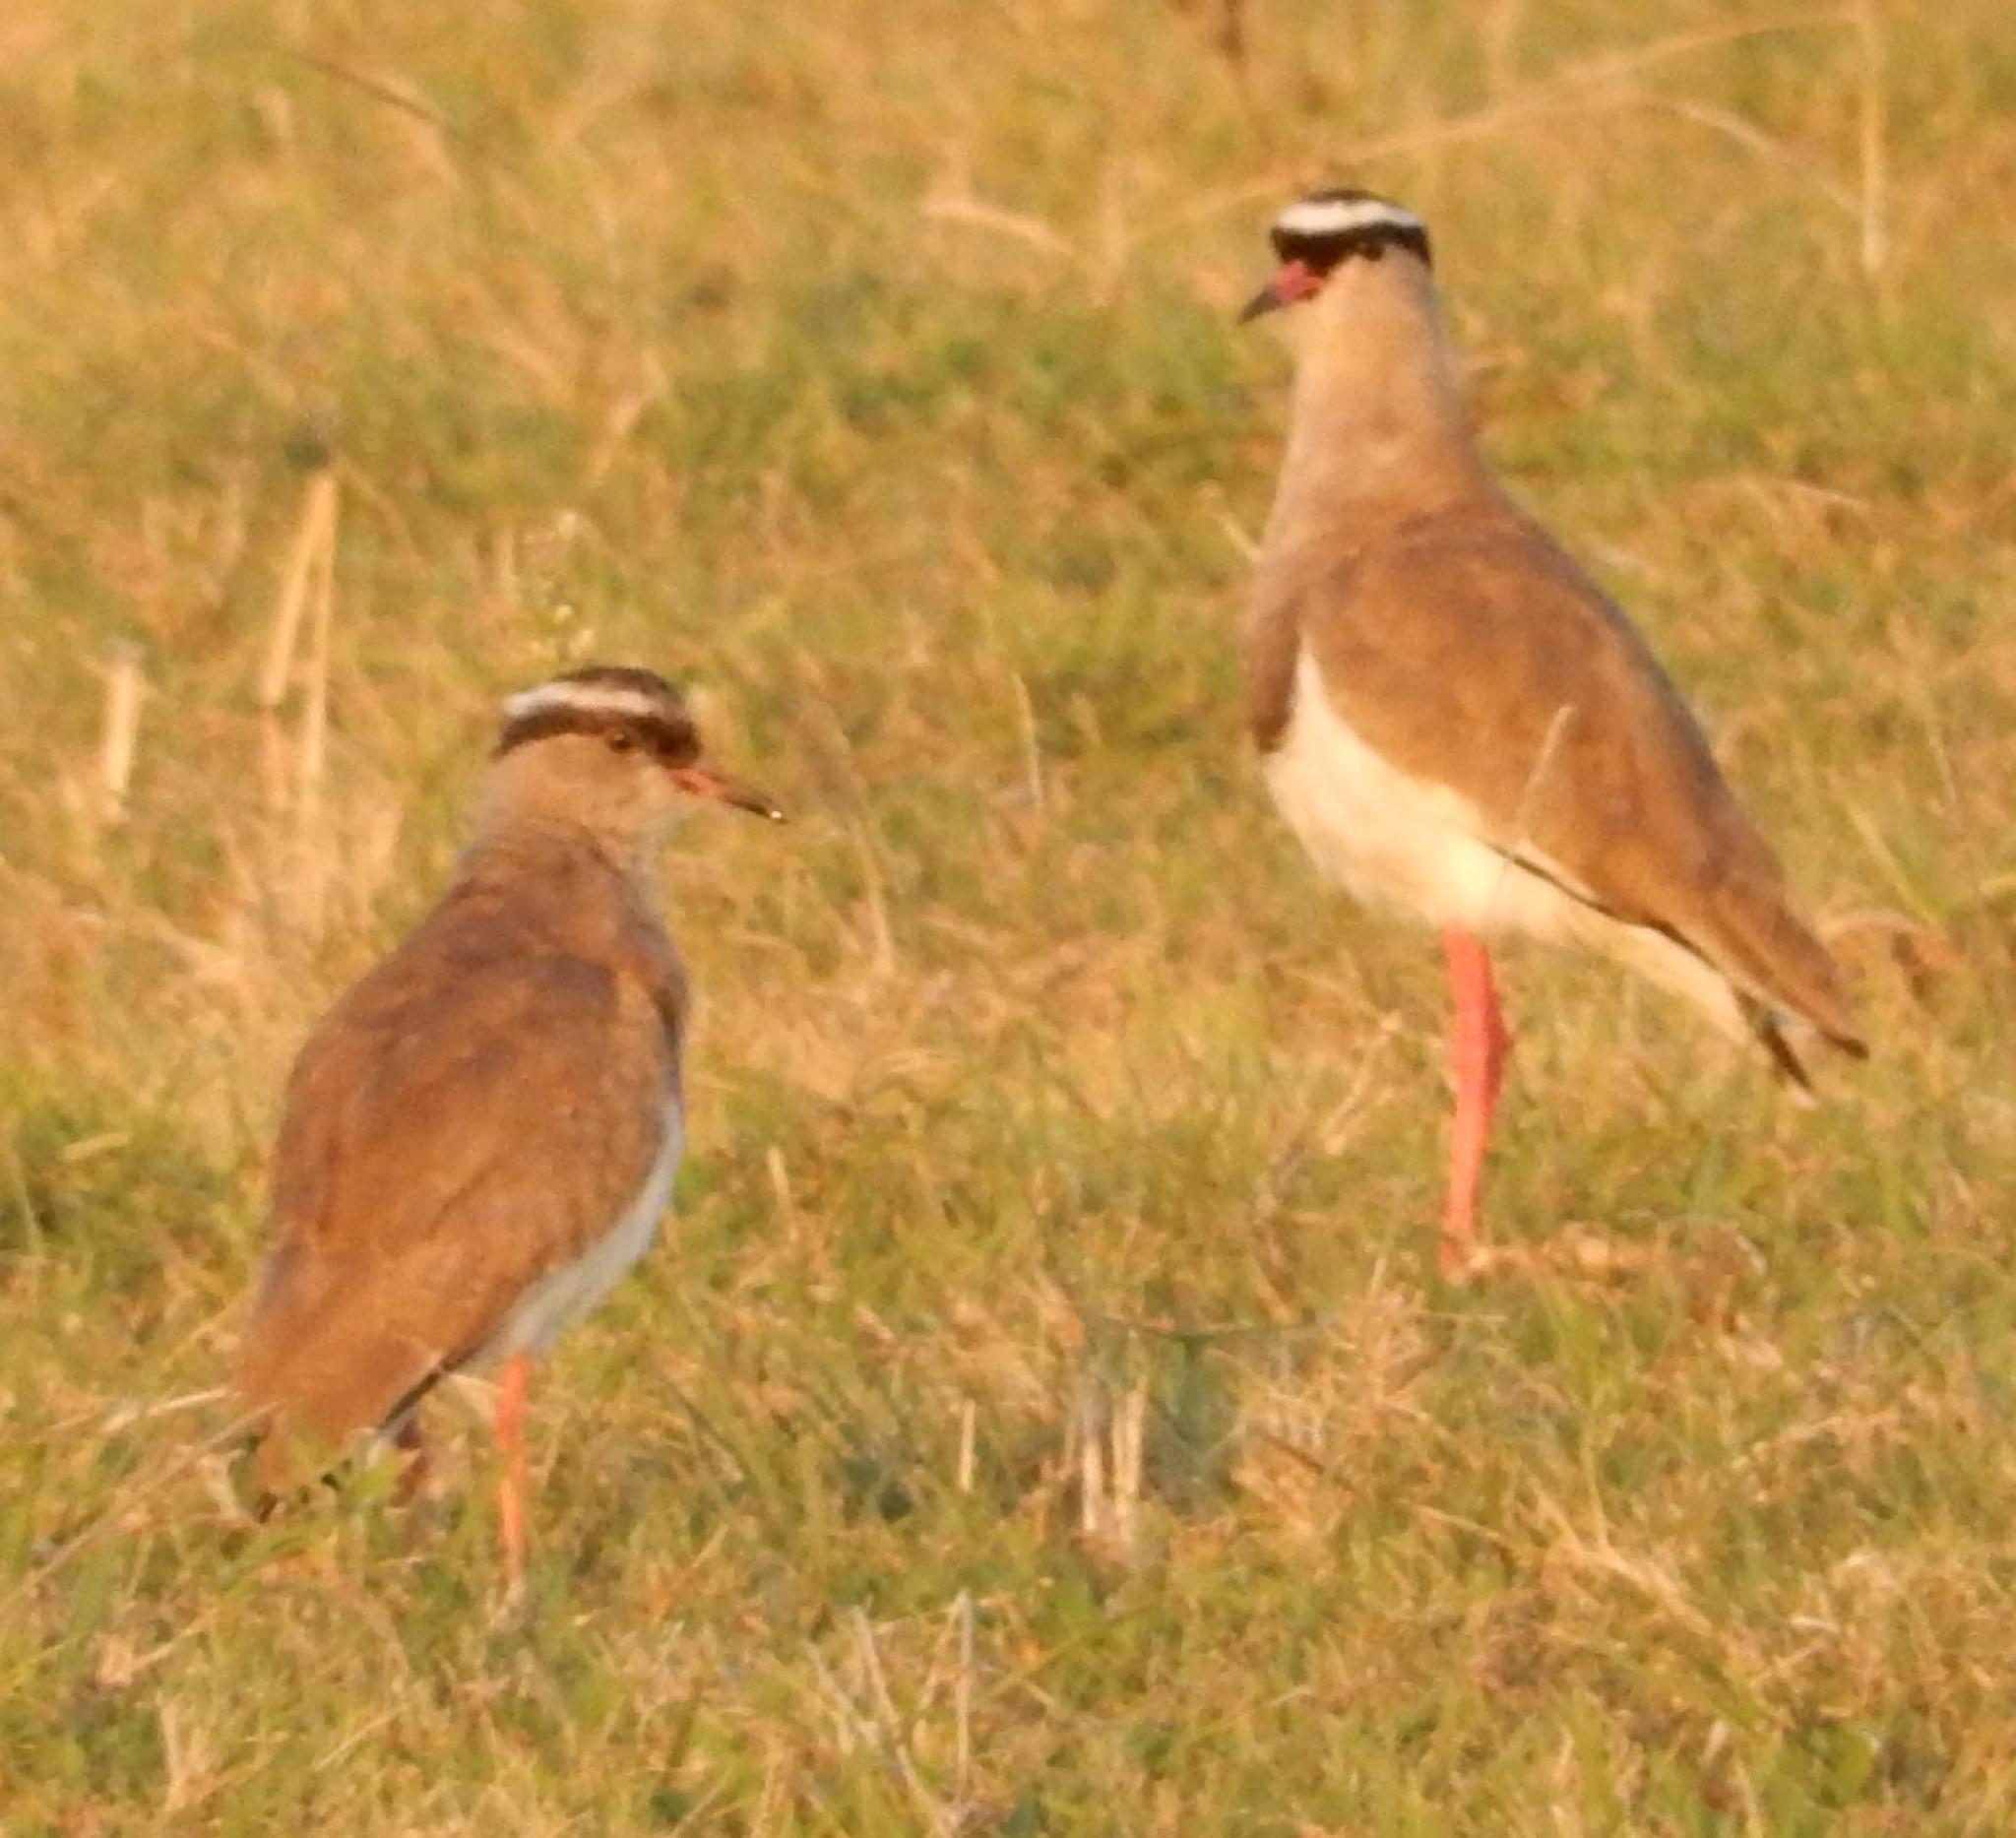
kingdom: Animalia
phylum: Chordata
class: Aves
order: Charadriiformes
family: Charadriidae
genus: Vanellus
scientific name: Vanellus coronatus
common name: Crowned lapwing
